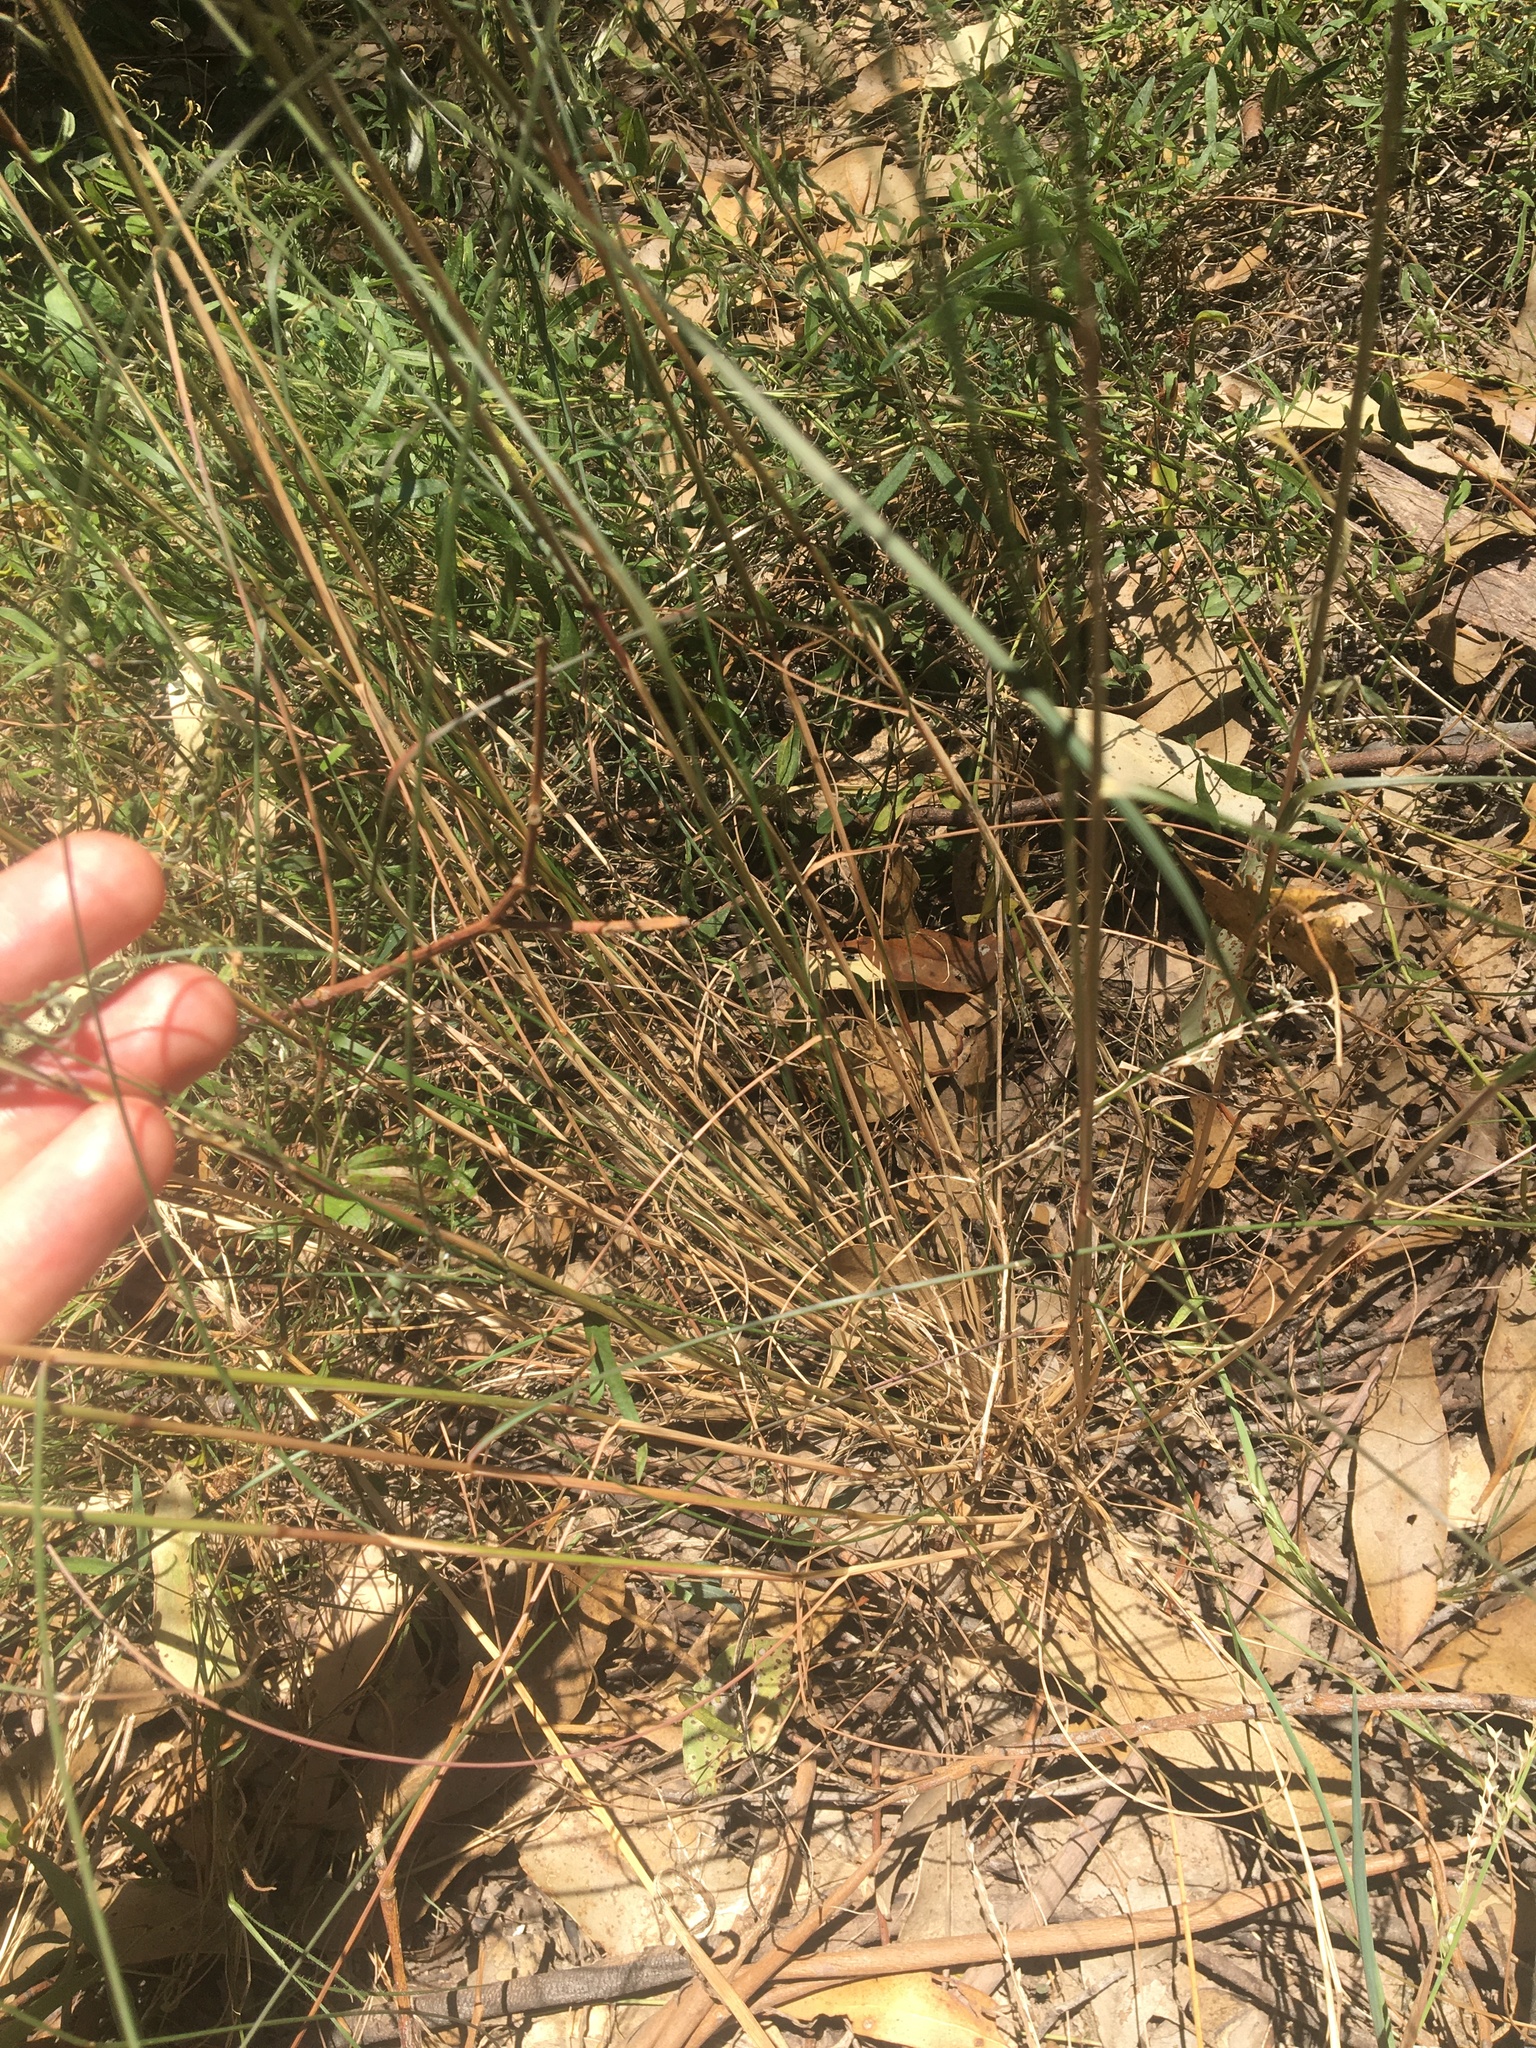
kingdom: Plantae
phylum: Tracheophyta
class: Liliopsida
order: Poales
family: Poaceae
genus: Rytidosperma
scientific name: Rytidosperma setaceum
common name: Small-flower wallaby grass
